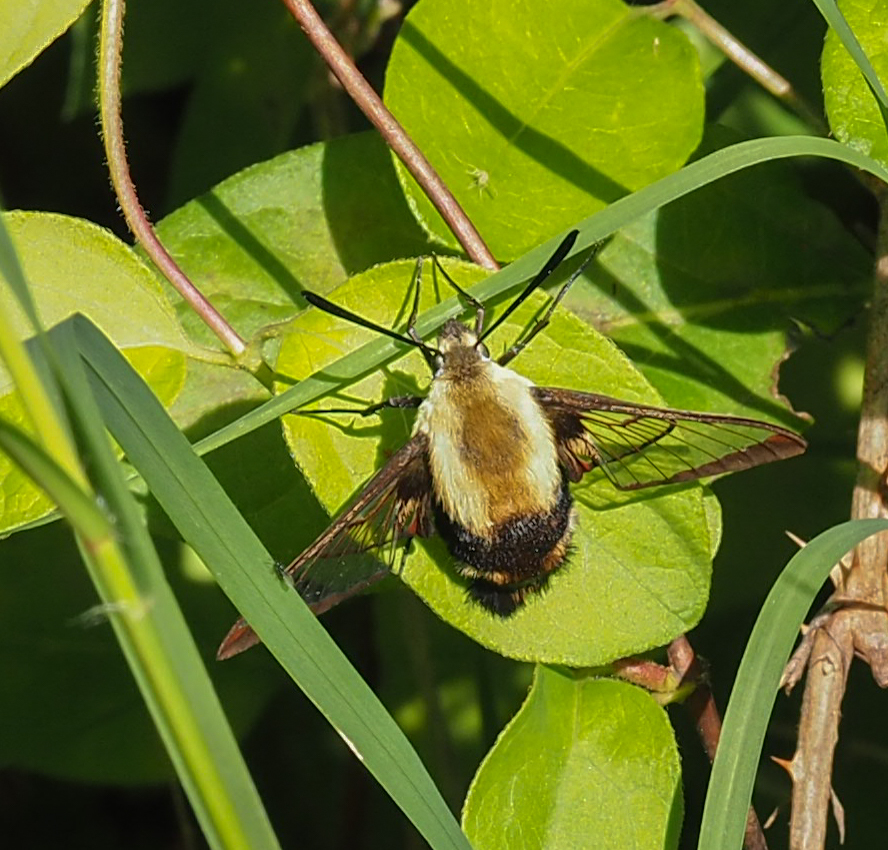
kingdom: Animalia
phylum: Arthropoda
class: Insecta
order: Lepidoptera
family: Sphingidae
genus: Hemaris
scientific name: Hemaris diffinis
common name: Bumblebee moth
